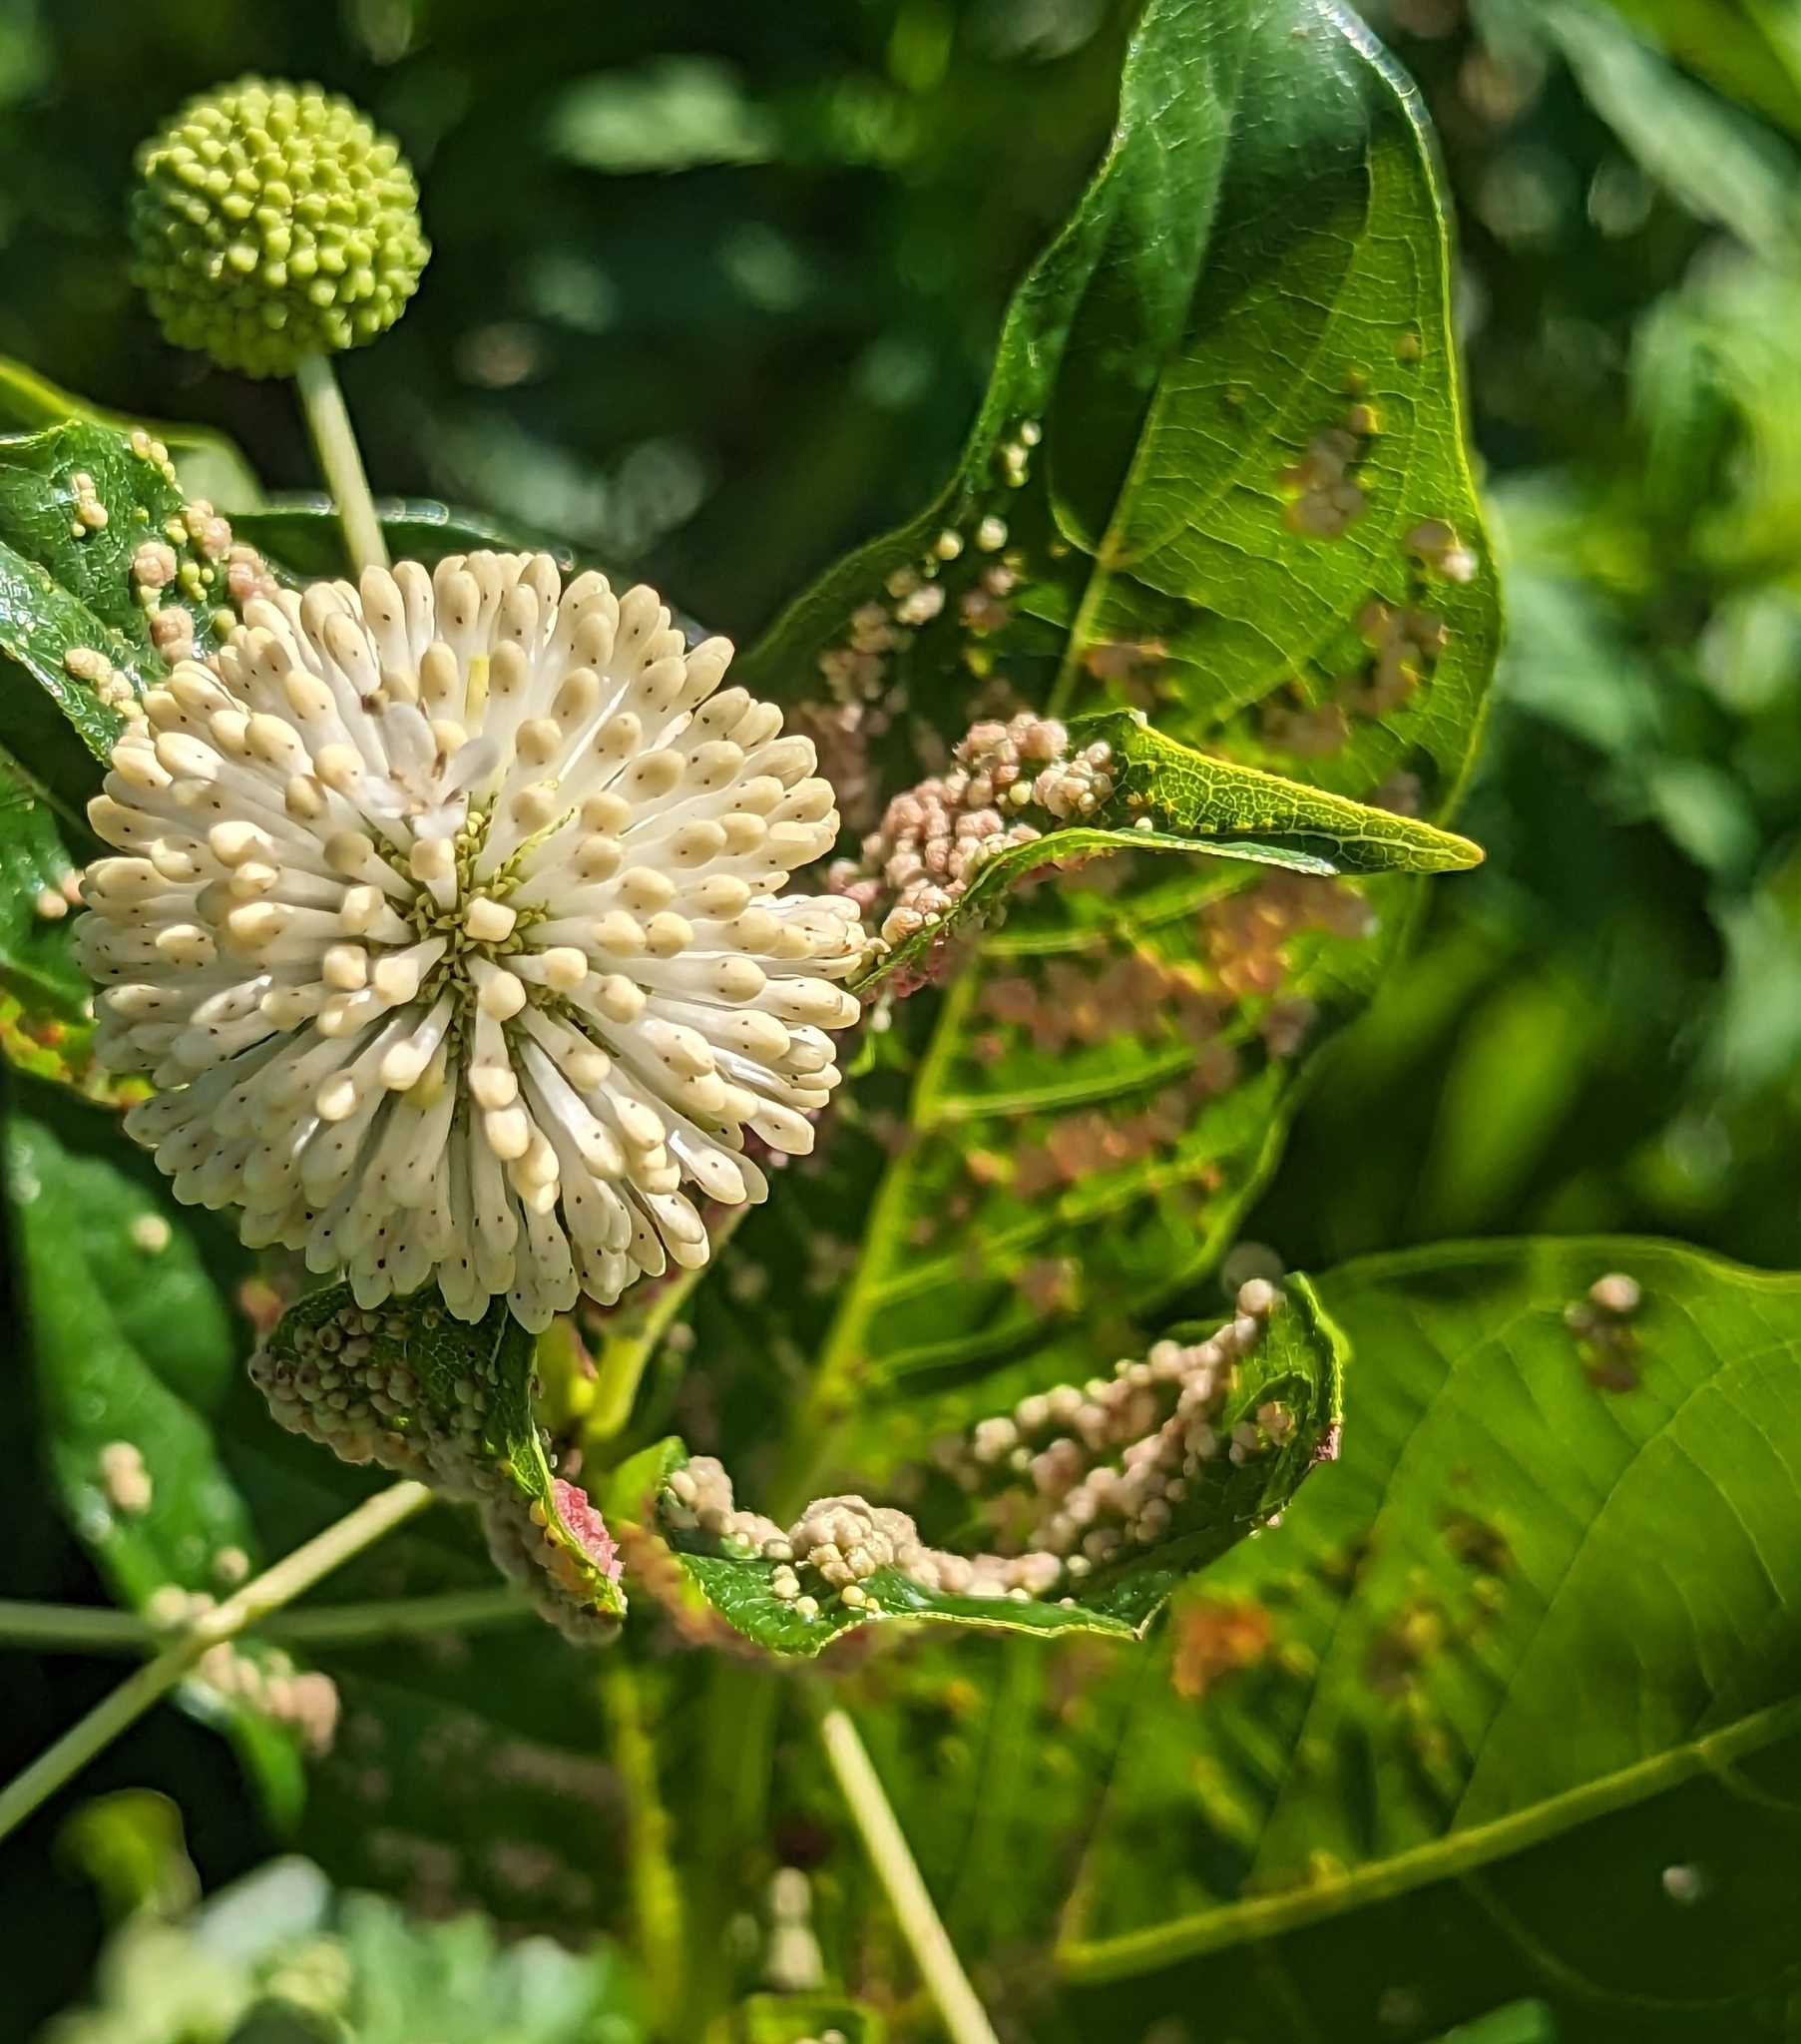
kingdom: Animalia
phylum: Arthropoda
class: Arachnida
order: Trombidiformes
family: Eriophyidae
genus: Aceria
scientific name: Aceria
